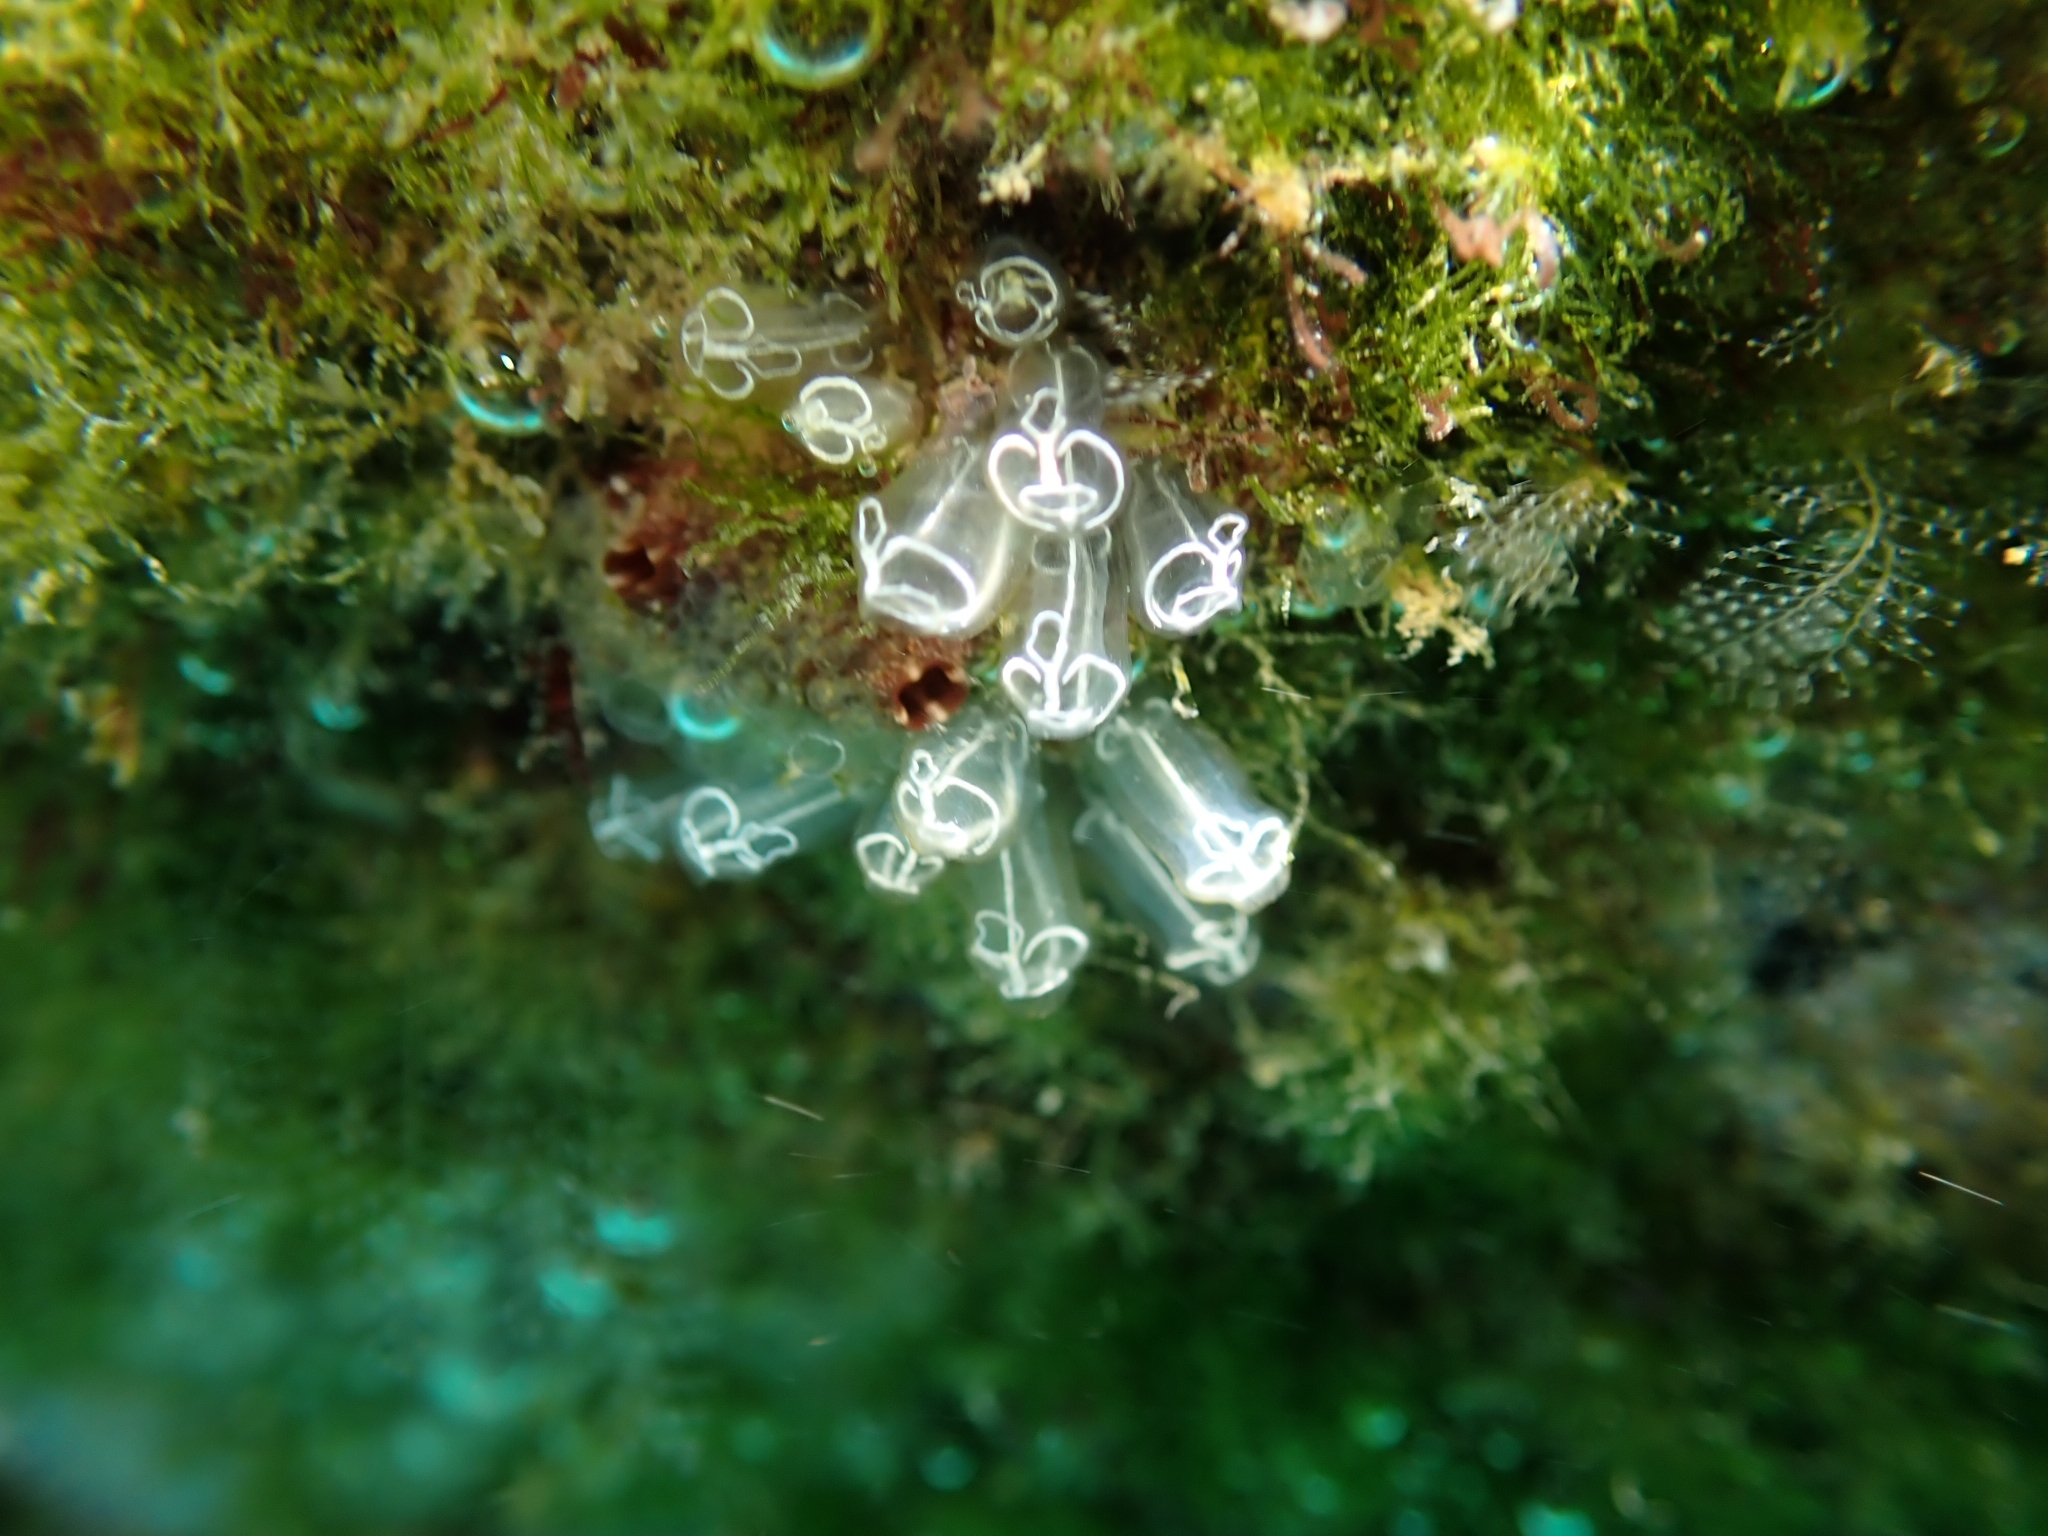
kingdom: Animalia
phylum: Chordata
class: Ascidiacea
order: Aplousobranchia
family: Clavelinidae
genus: Clavelina
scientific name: Clavelina lepadiformis
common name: Light bulb tunicate
